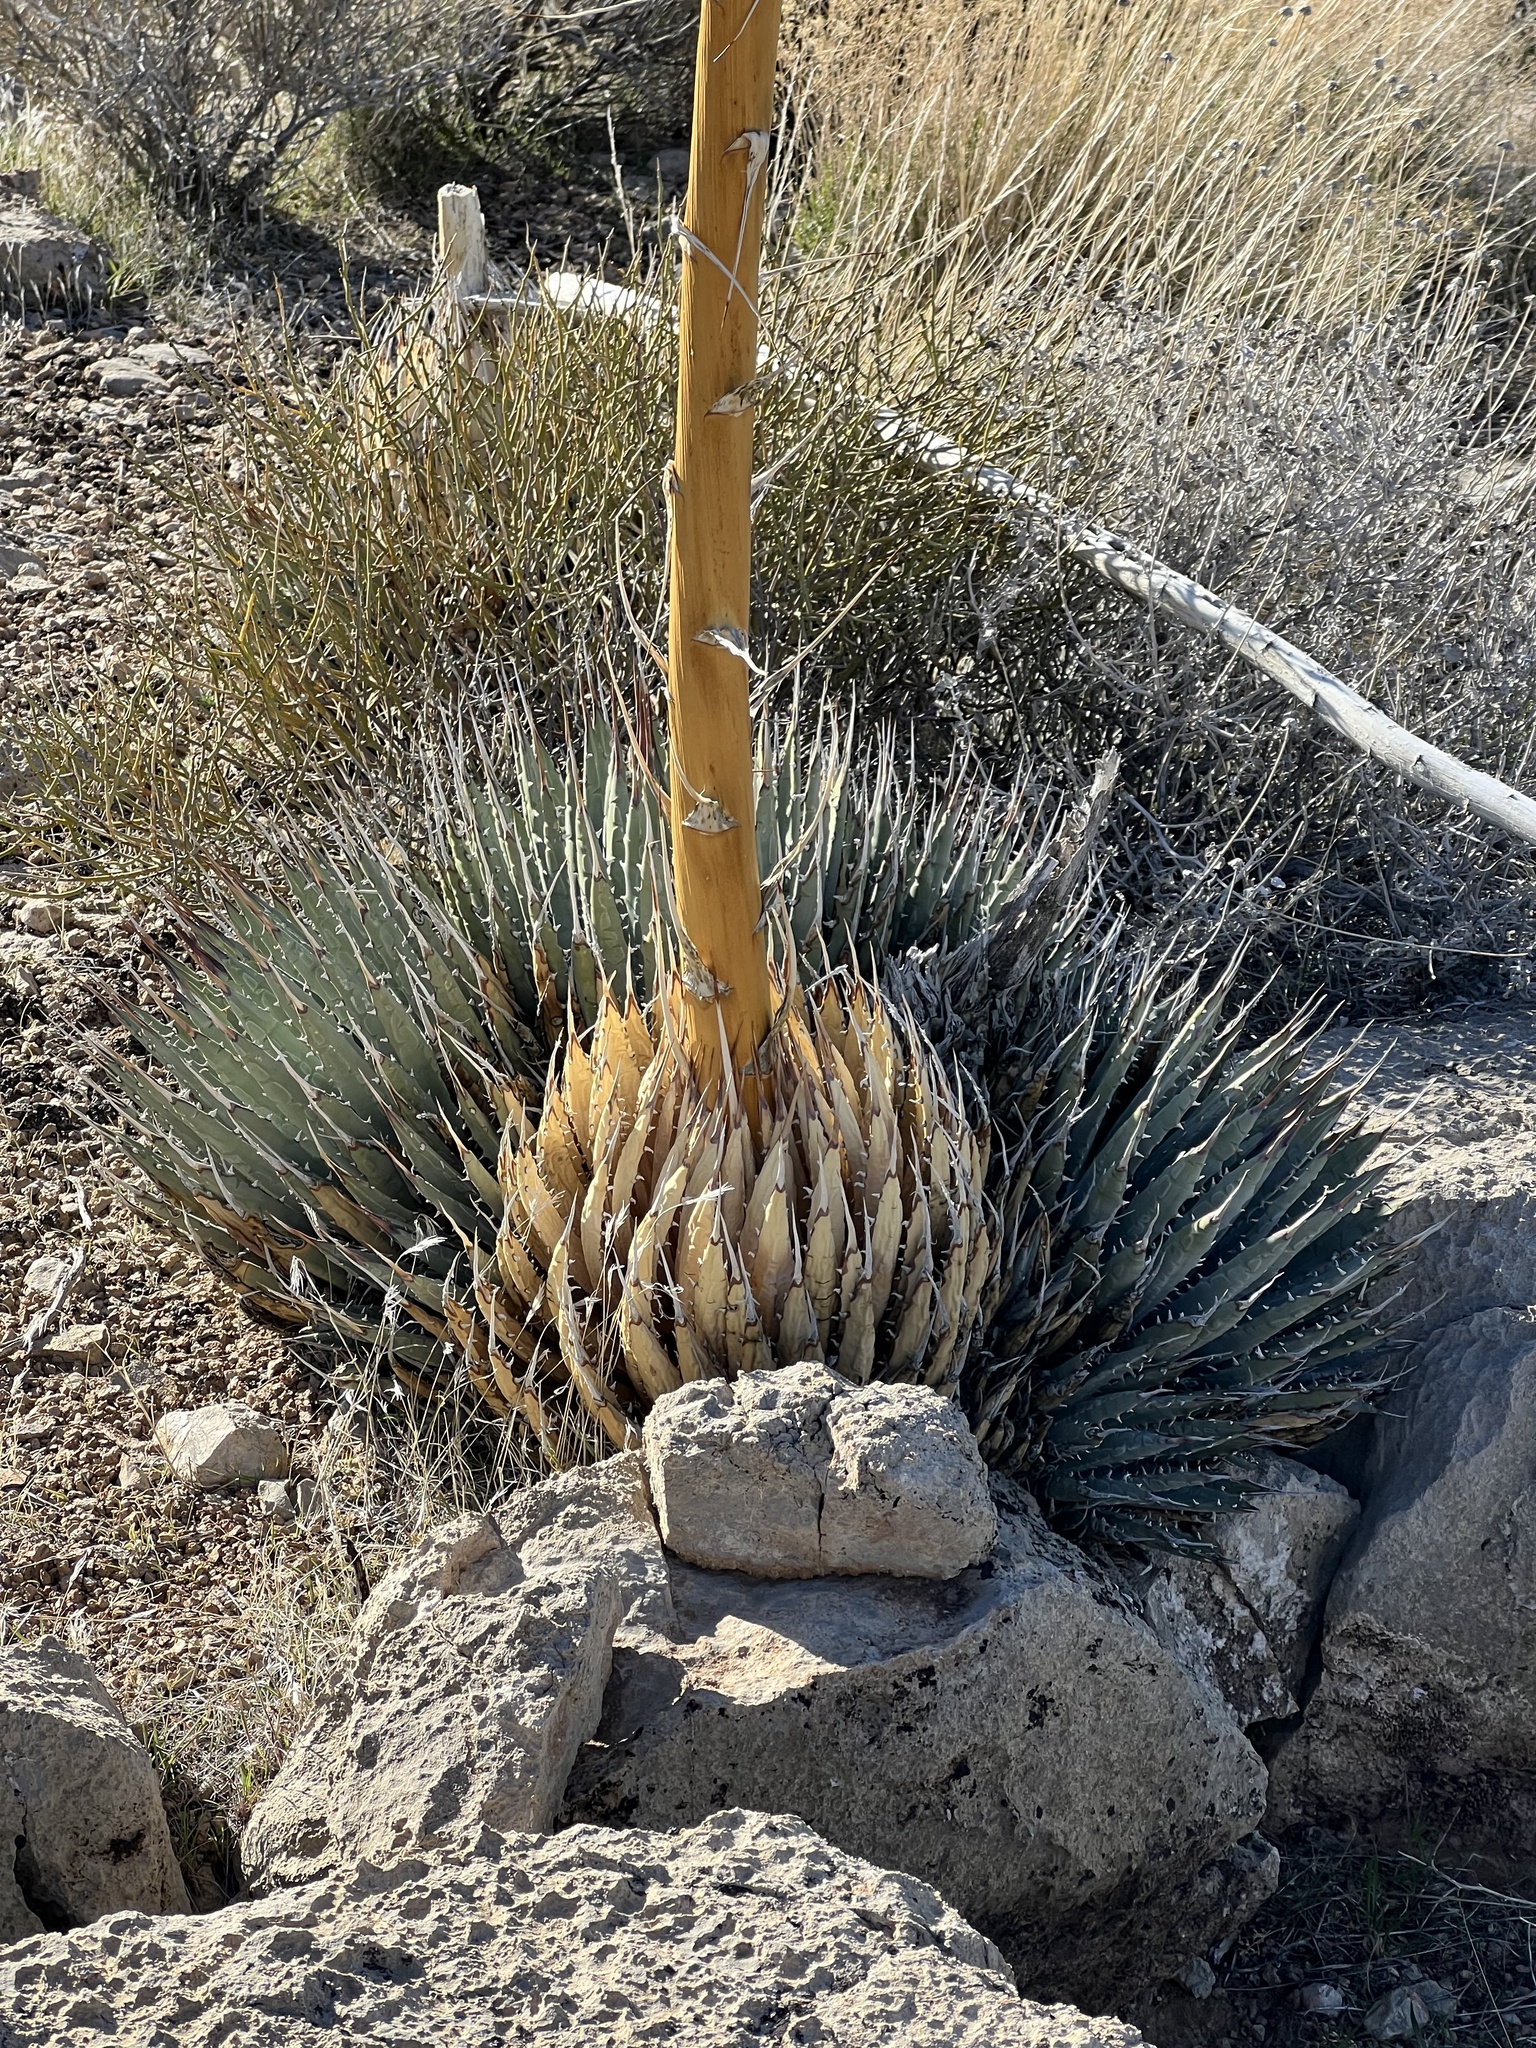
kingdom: Plantae
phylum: Tracheophyta
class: Liliopsida
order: Asparagales
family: Asparagaceae
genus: Agave
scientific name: Agave utahensis
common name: Utah agave
